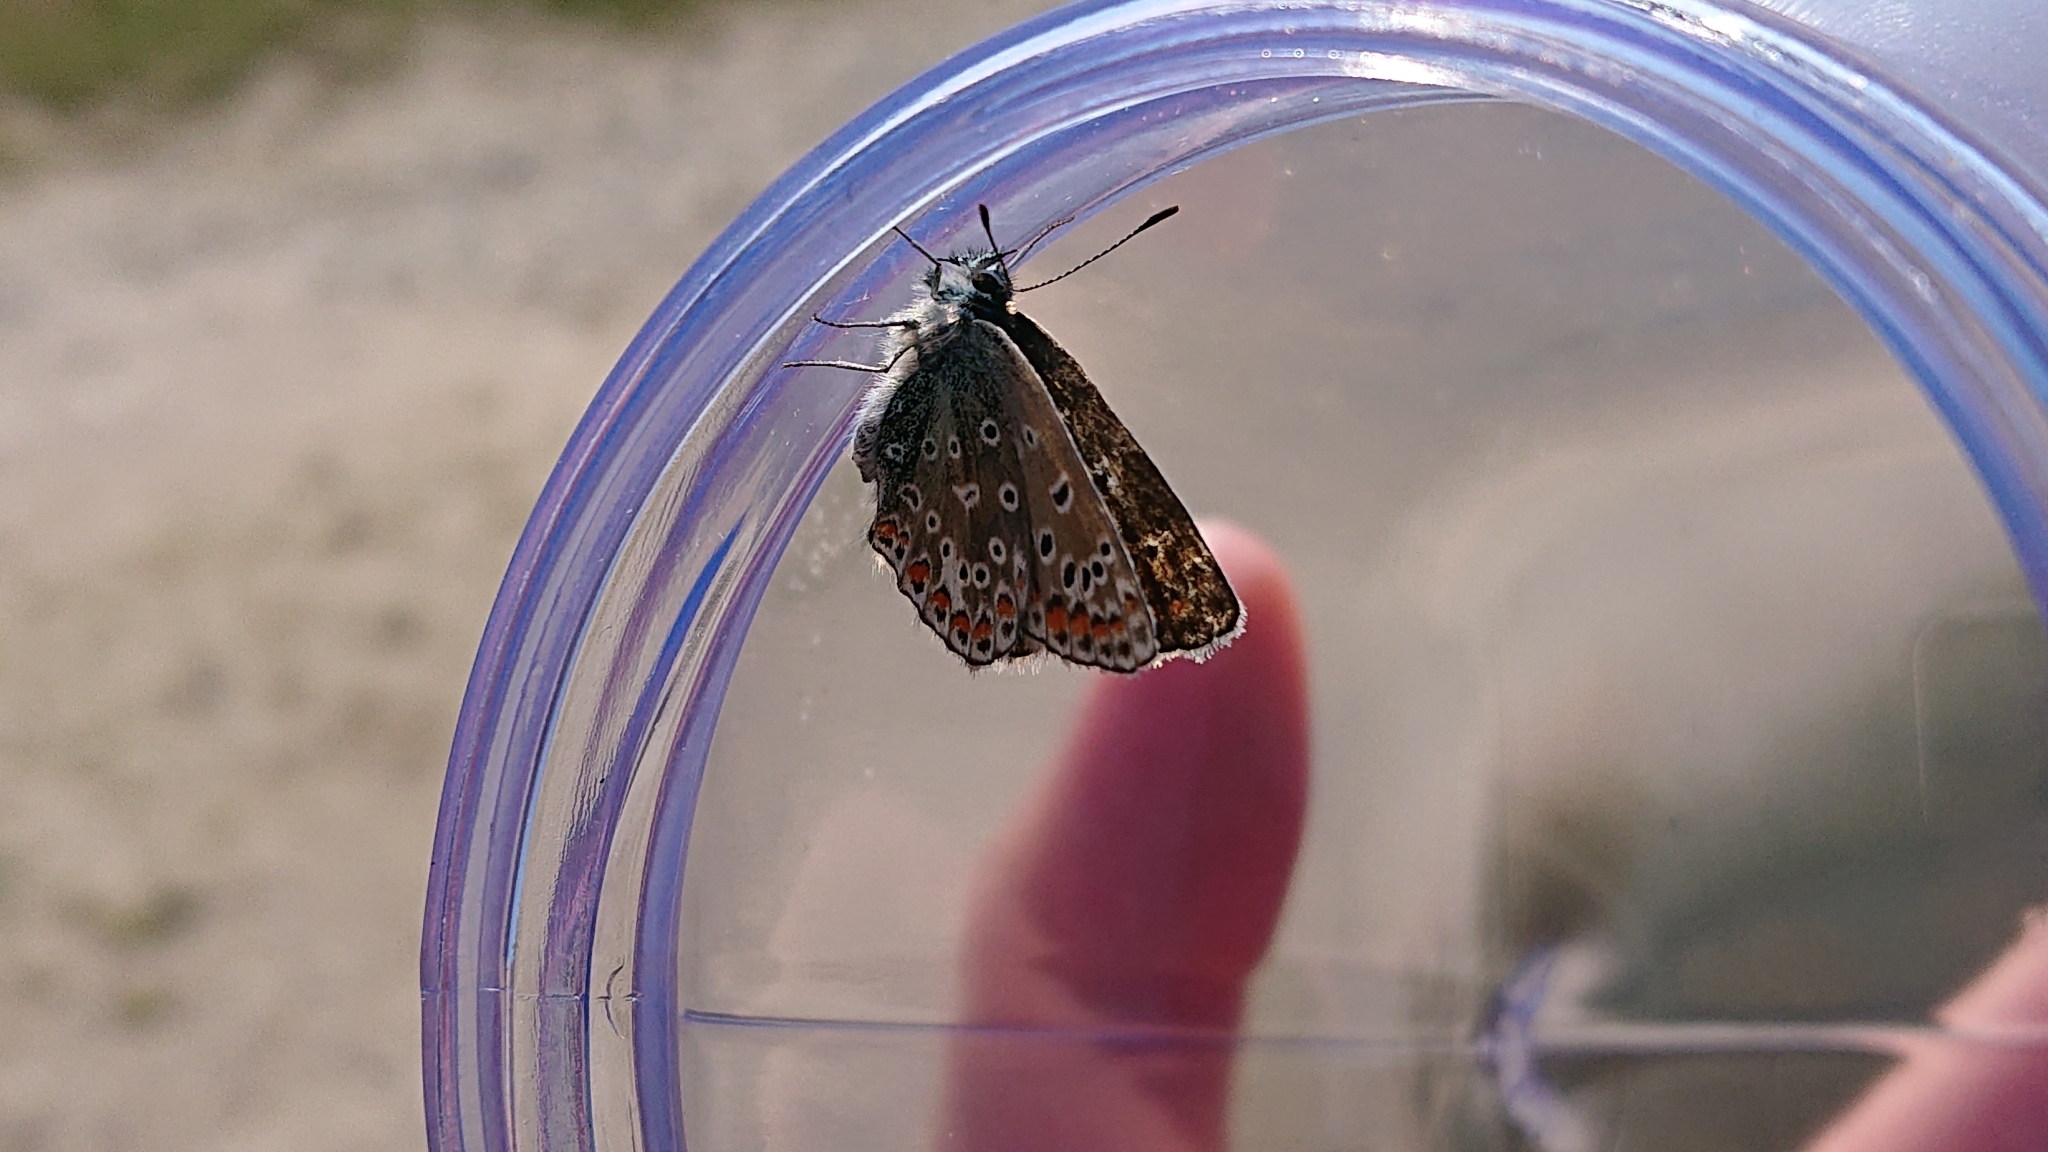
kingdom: Animalia
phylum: Arthropoda
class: Insecta
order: Lepidoptera
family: Lycaenidae
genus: Polyommatus
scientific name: Polyommatus icarus
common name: Common blue
